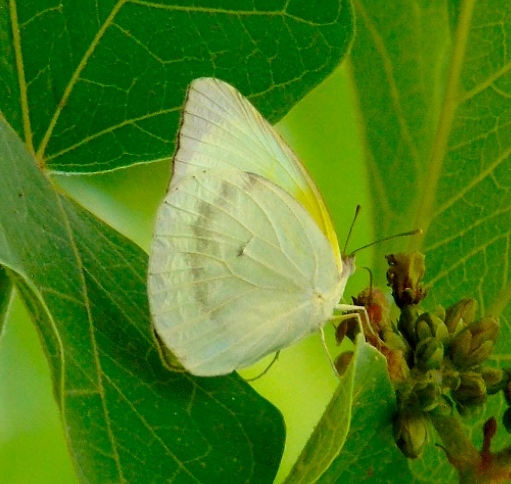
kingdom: Animalia
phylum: Arthropoda
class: Insecta
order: Lepidoptera
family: Pieridae
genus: Kricogonia
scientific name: Kricogonia lyside
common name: Guayacan sulphur,
